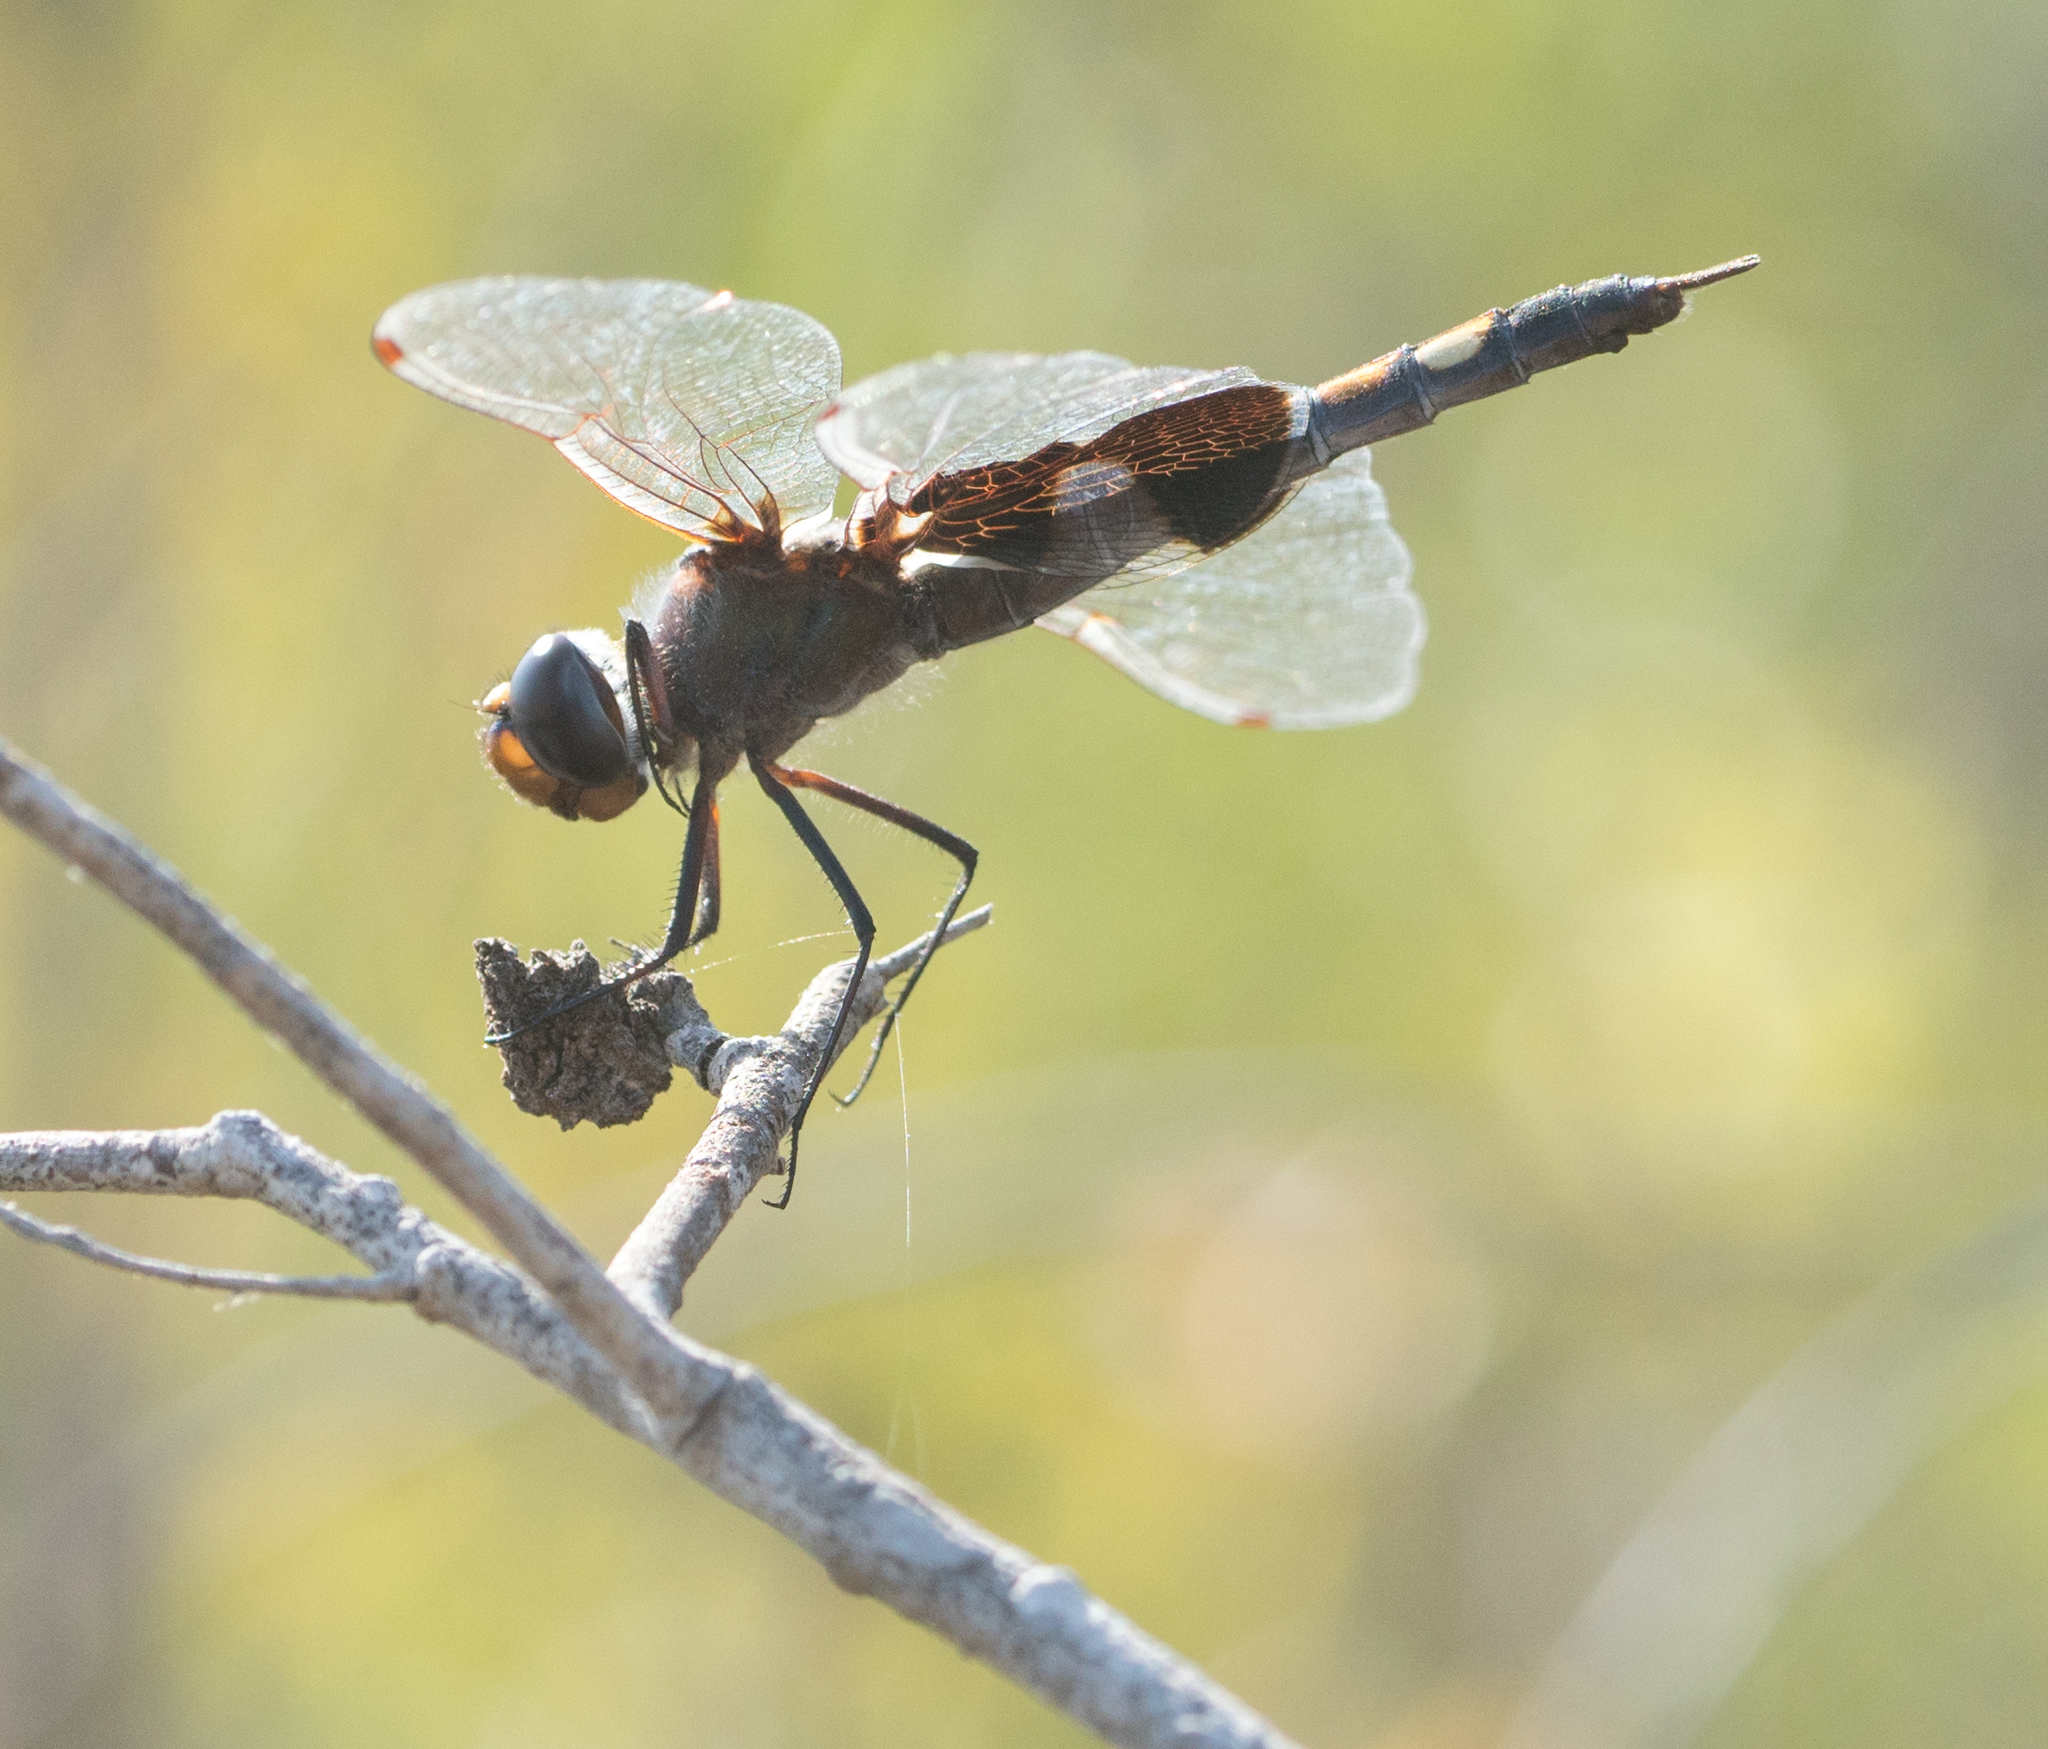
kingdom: Animalia
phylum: Arthropoda
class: Insecta
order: Odonata
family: Libellulidae
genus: Tramea
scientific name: Tramea lacerata
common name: Black saddlebags
